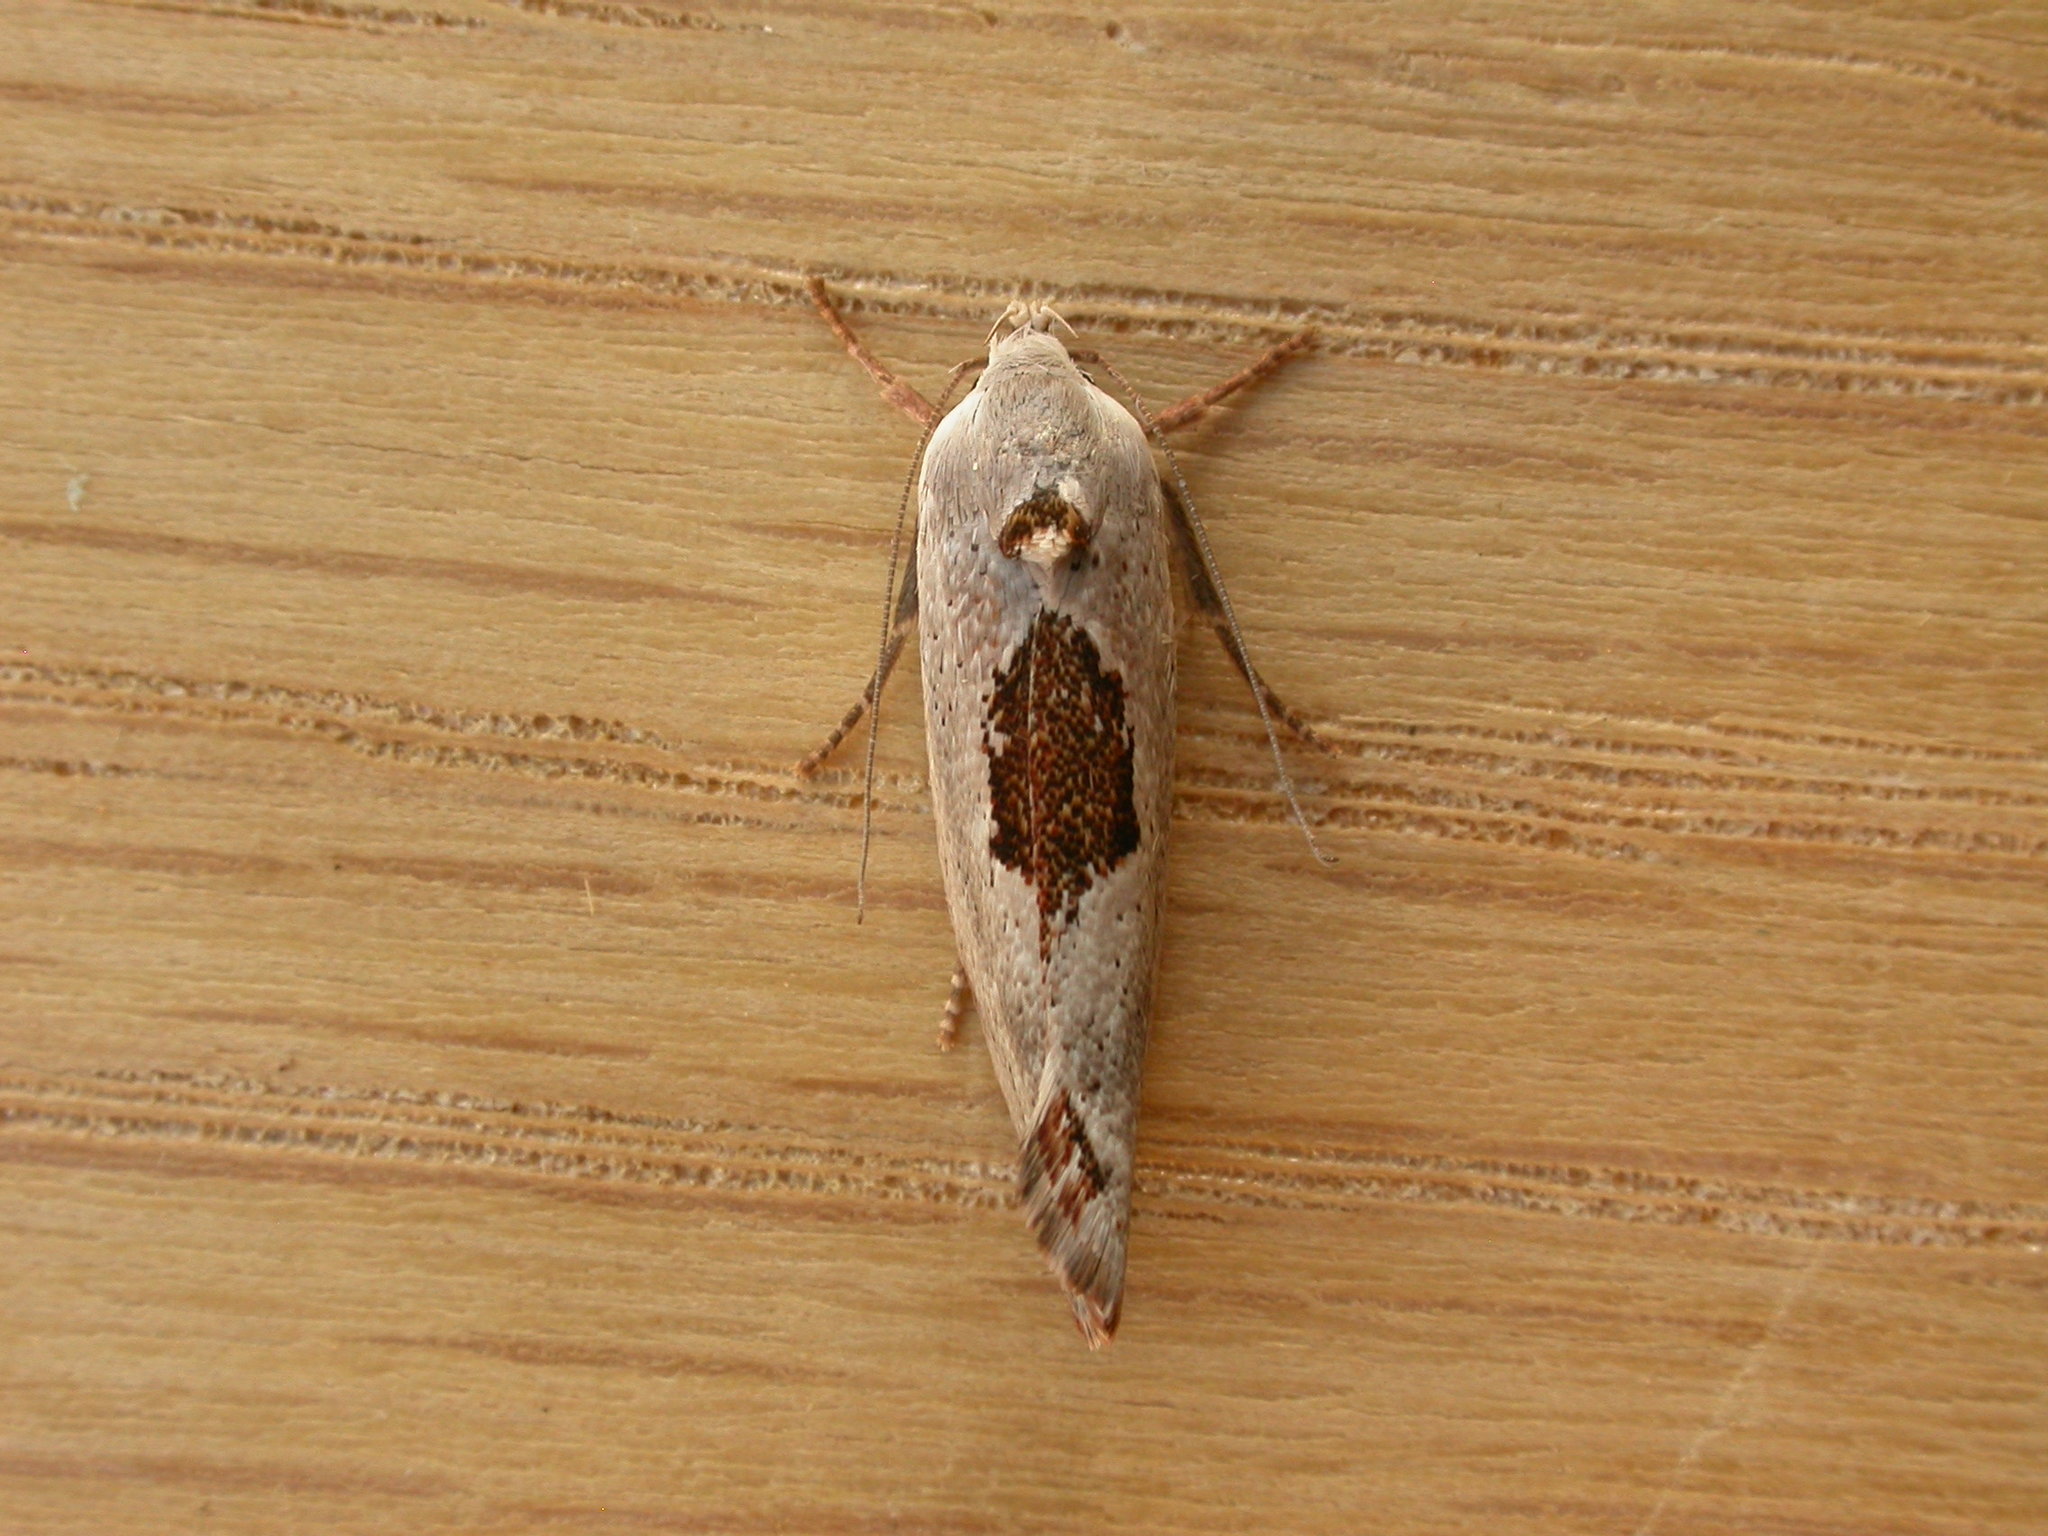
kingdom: Animalia
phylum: Arthropoda
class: Insecta
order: Lepidoptera
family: Xyloryctidae
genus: Tymbophora
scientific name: Tymbophora peltastis
